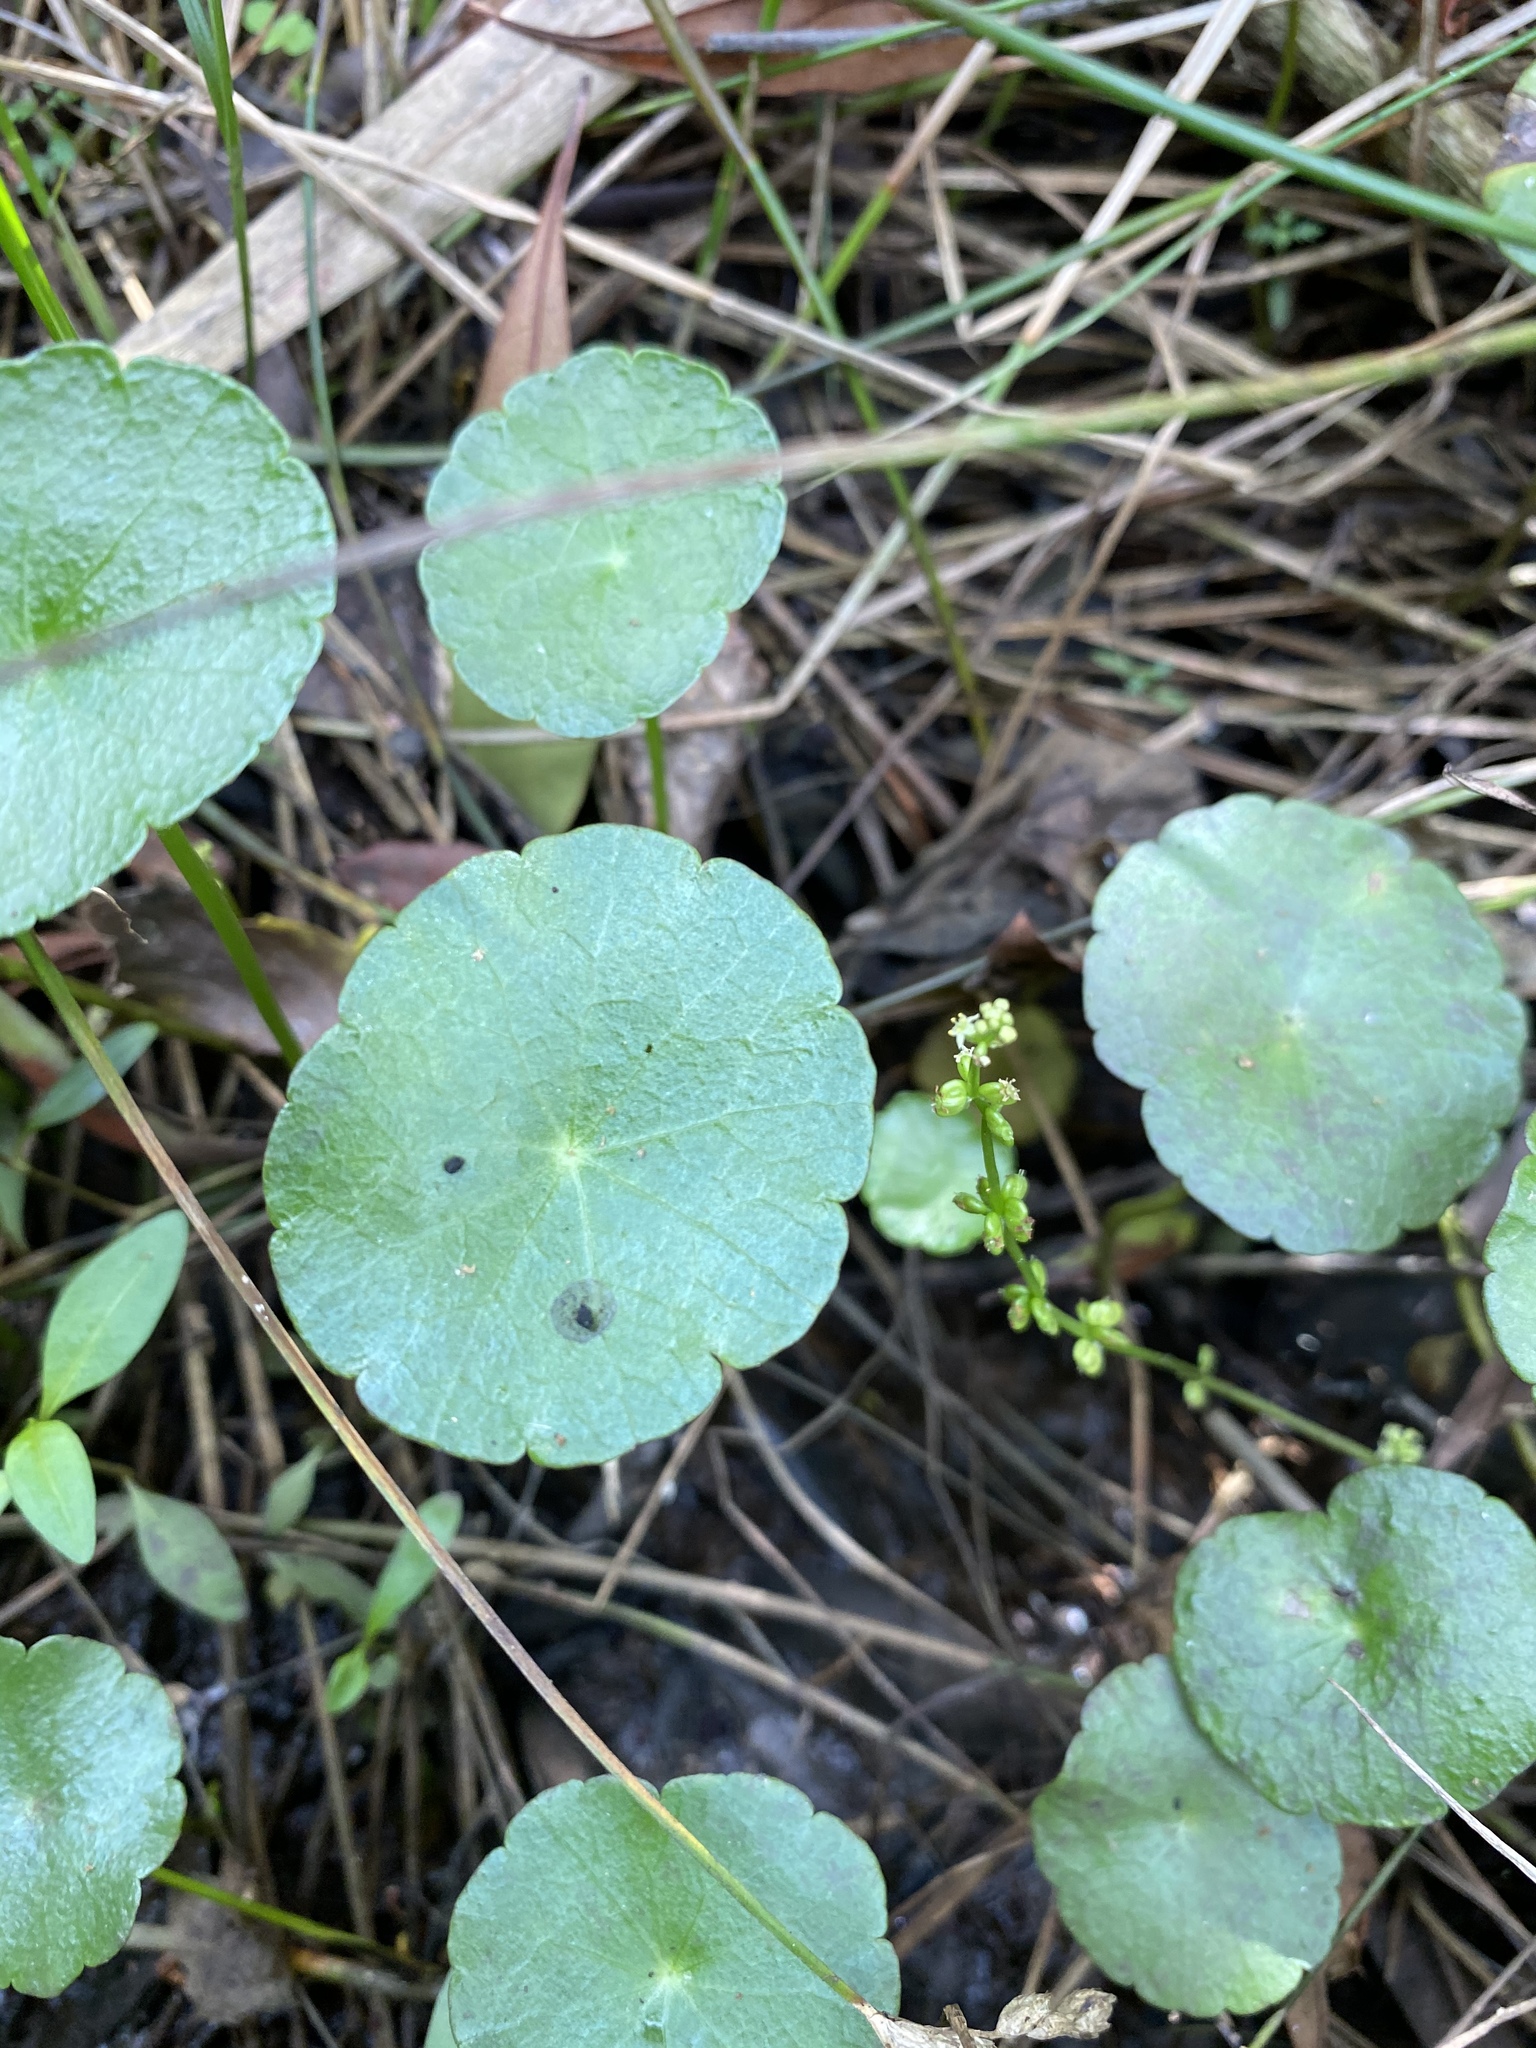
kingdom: Plantae
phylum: Tracheophyta
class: Magnoliopsida
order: Apiales
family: Araliaceae
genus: Hydrocotyle
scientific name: Hydrocotyle verticillata
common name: Whorled marshpennywort
